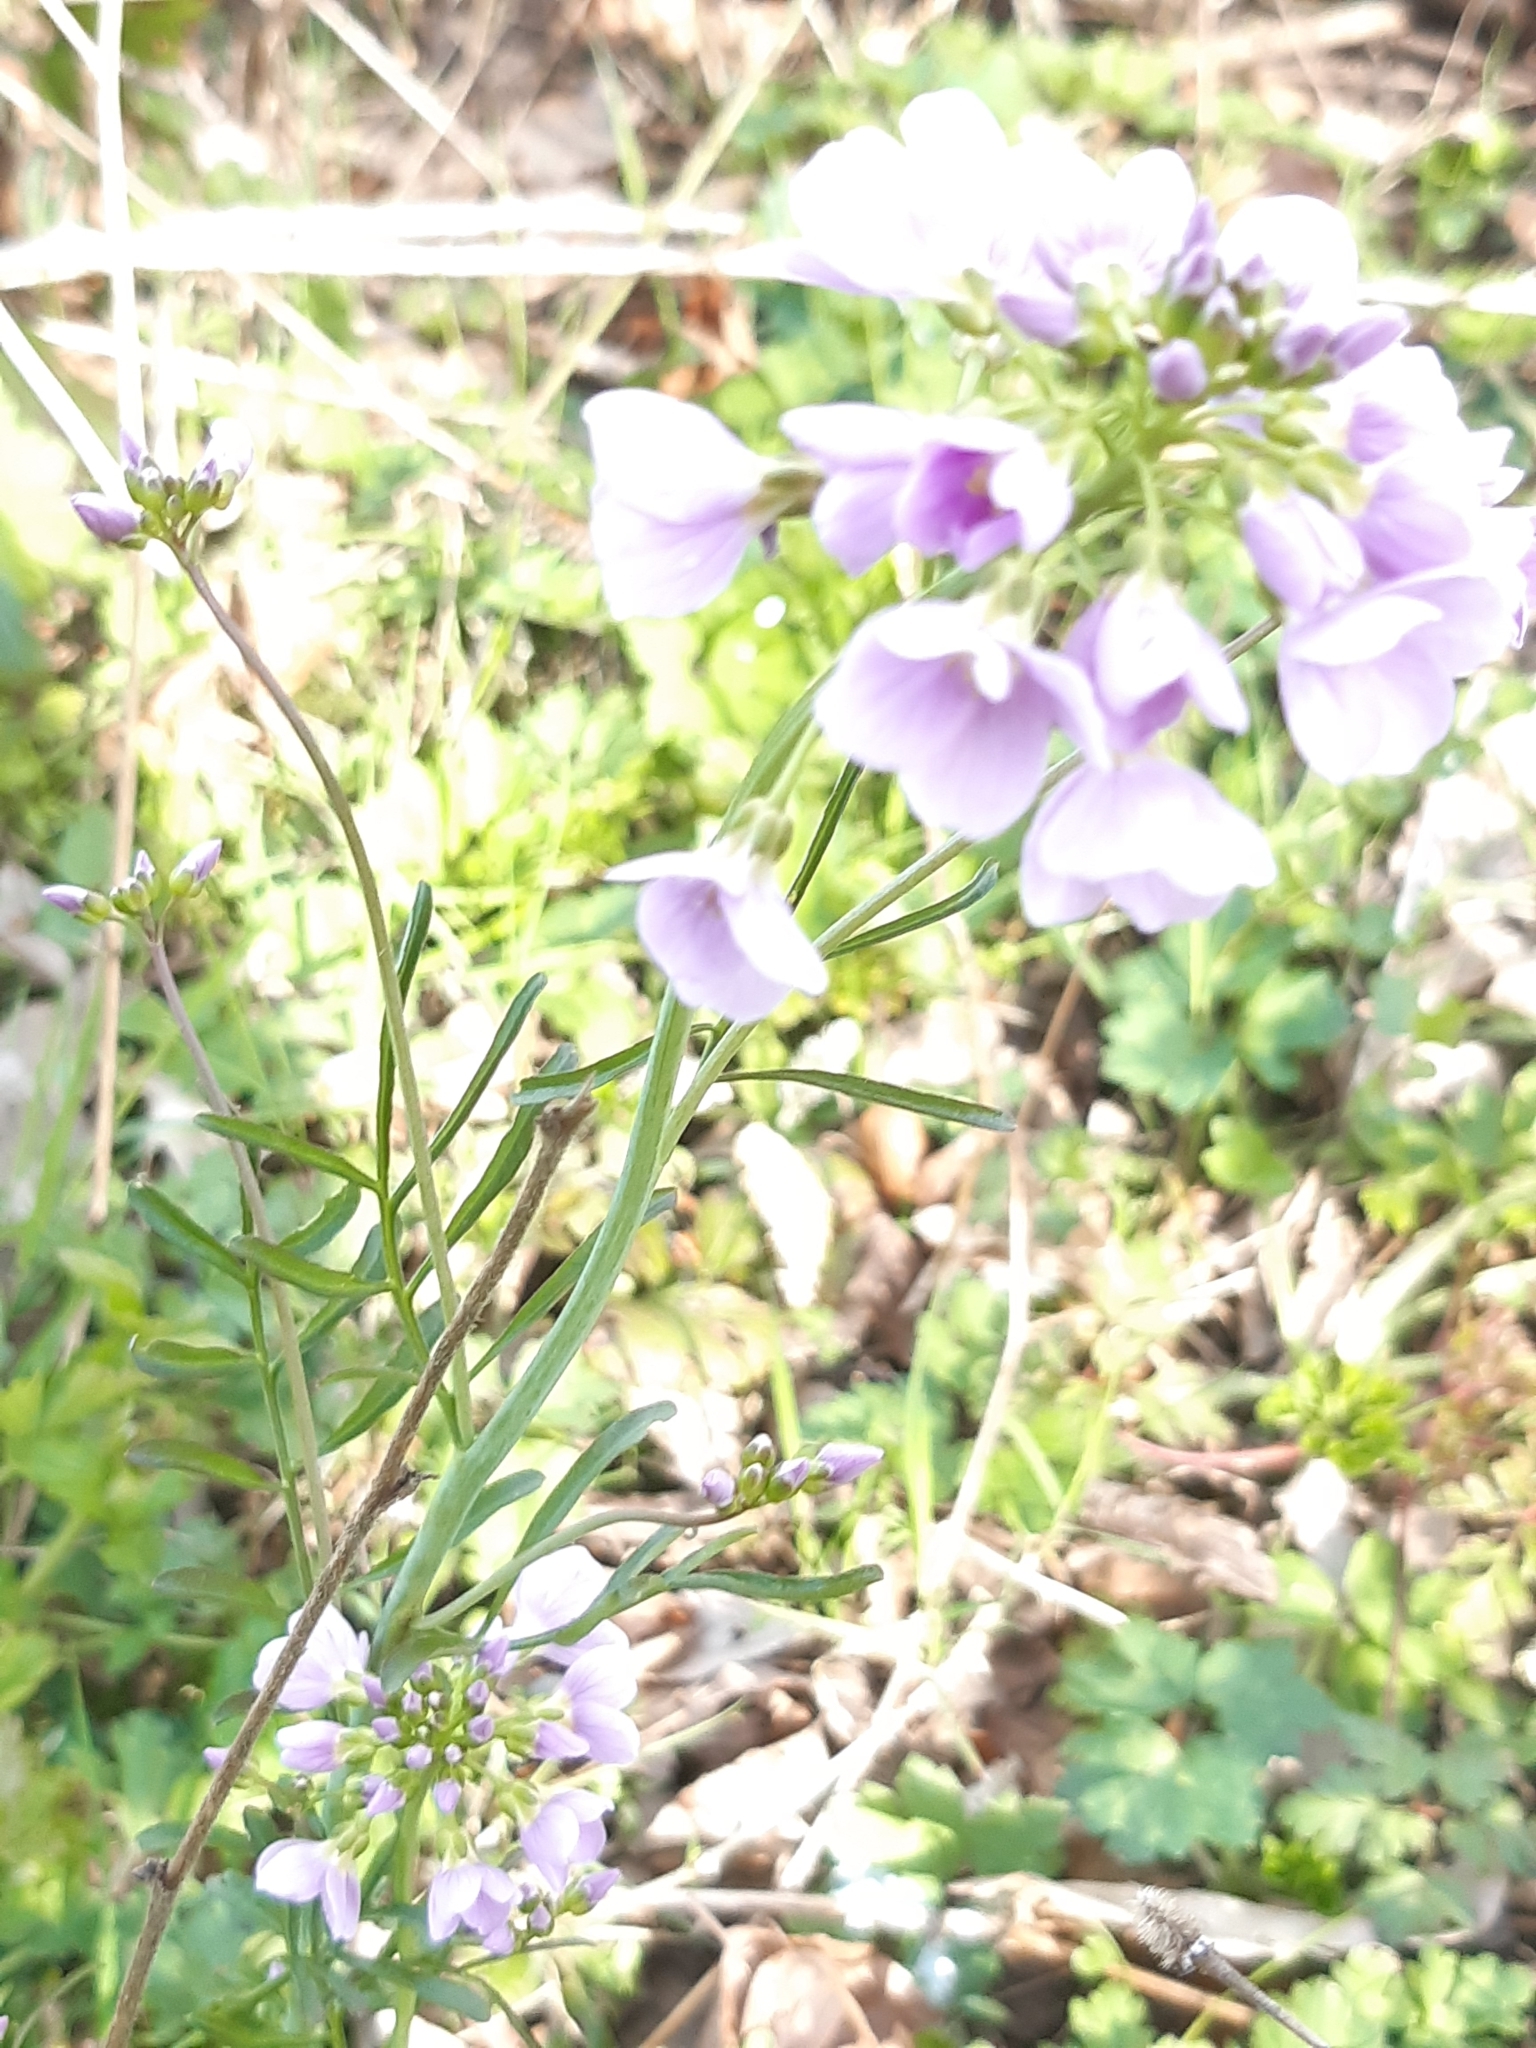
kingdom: Plantae
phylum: Tracheophyta
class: Magnoliopsida
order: Brassicales
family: Brassicaceae
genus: Cardamine
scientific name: Cardamine pratensis
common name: Cuckoo flower
